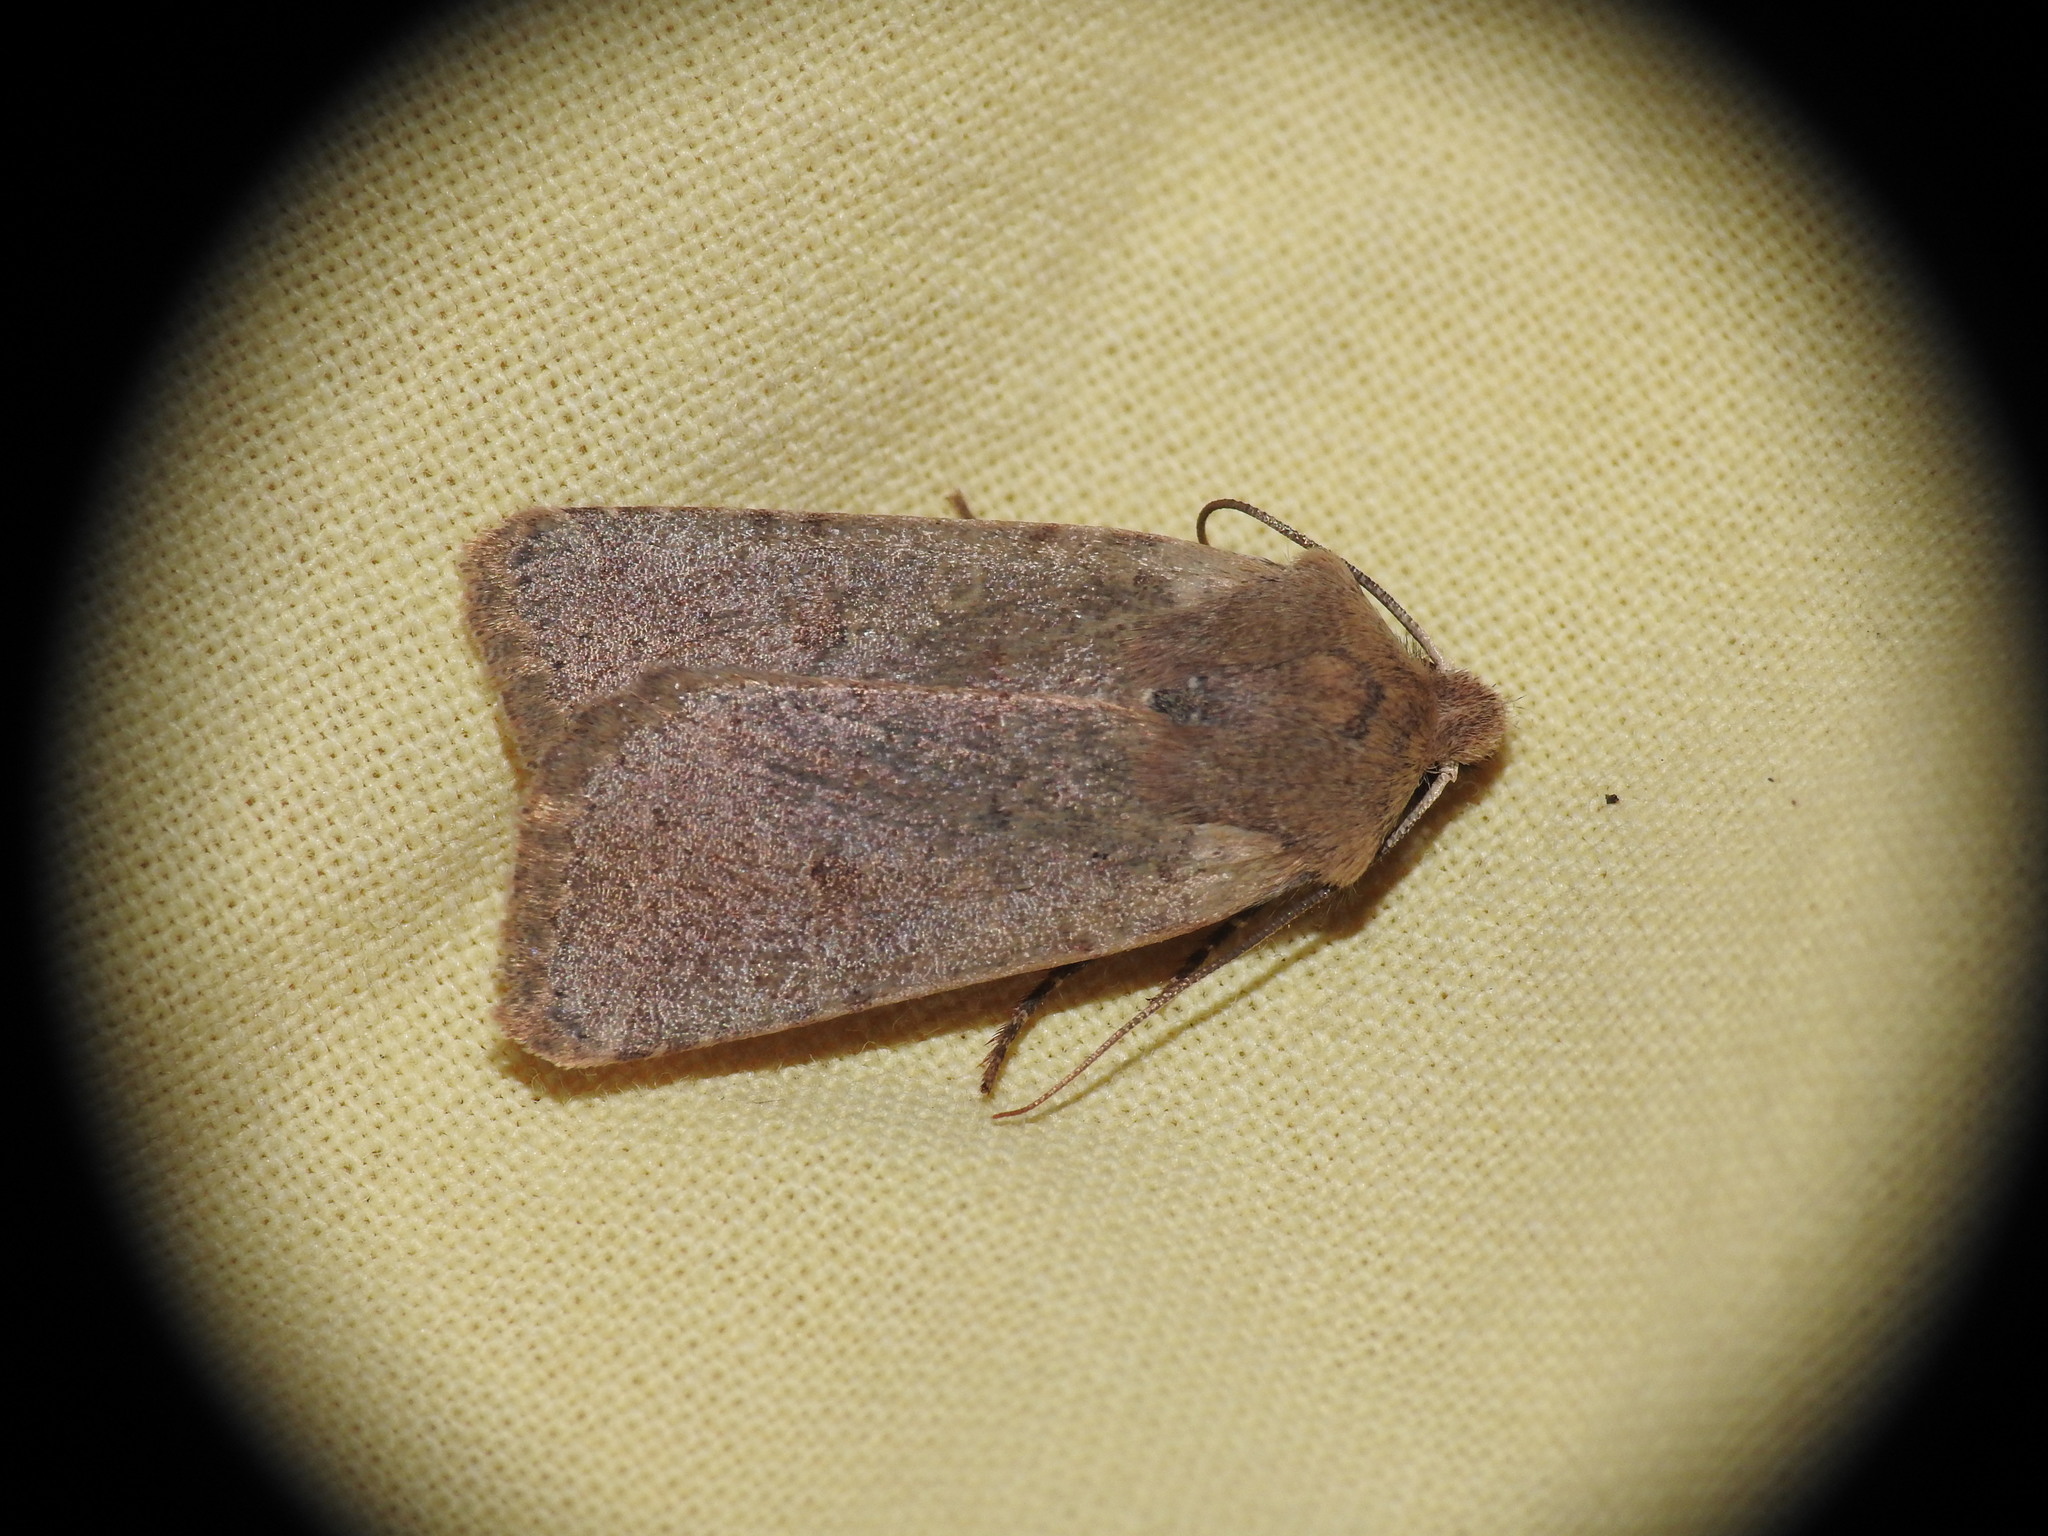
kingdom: Animalia
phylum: Arthropoda
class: Insecta
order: Lepidoptera
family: Noctuidae
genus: Agrochola
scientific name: Agrochola ruticilla
